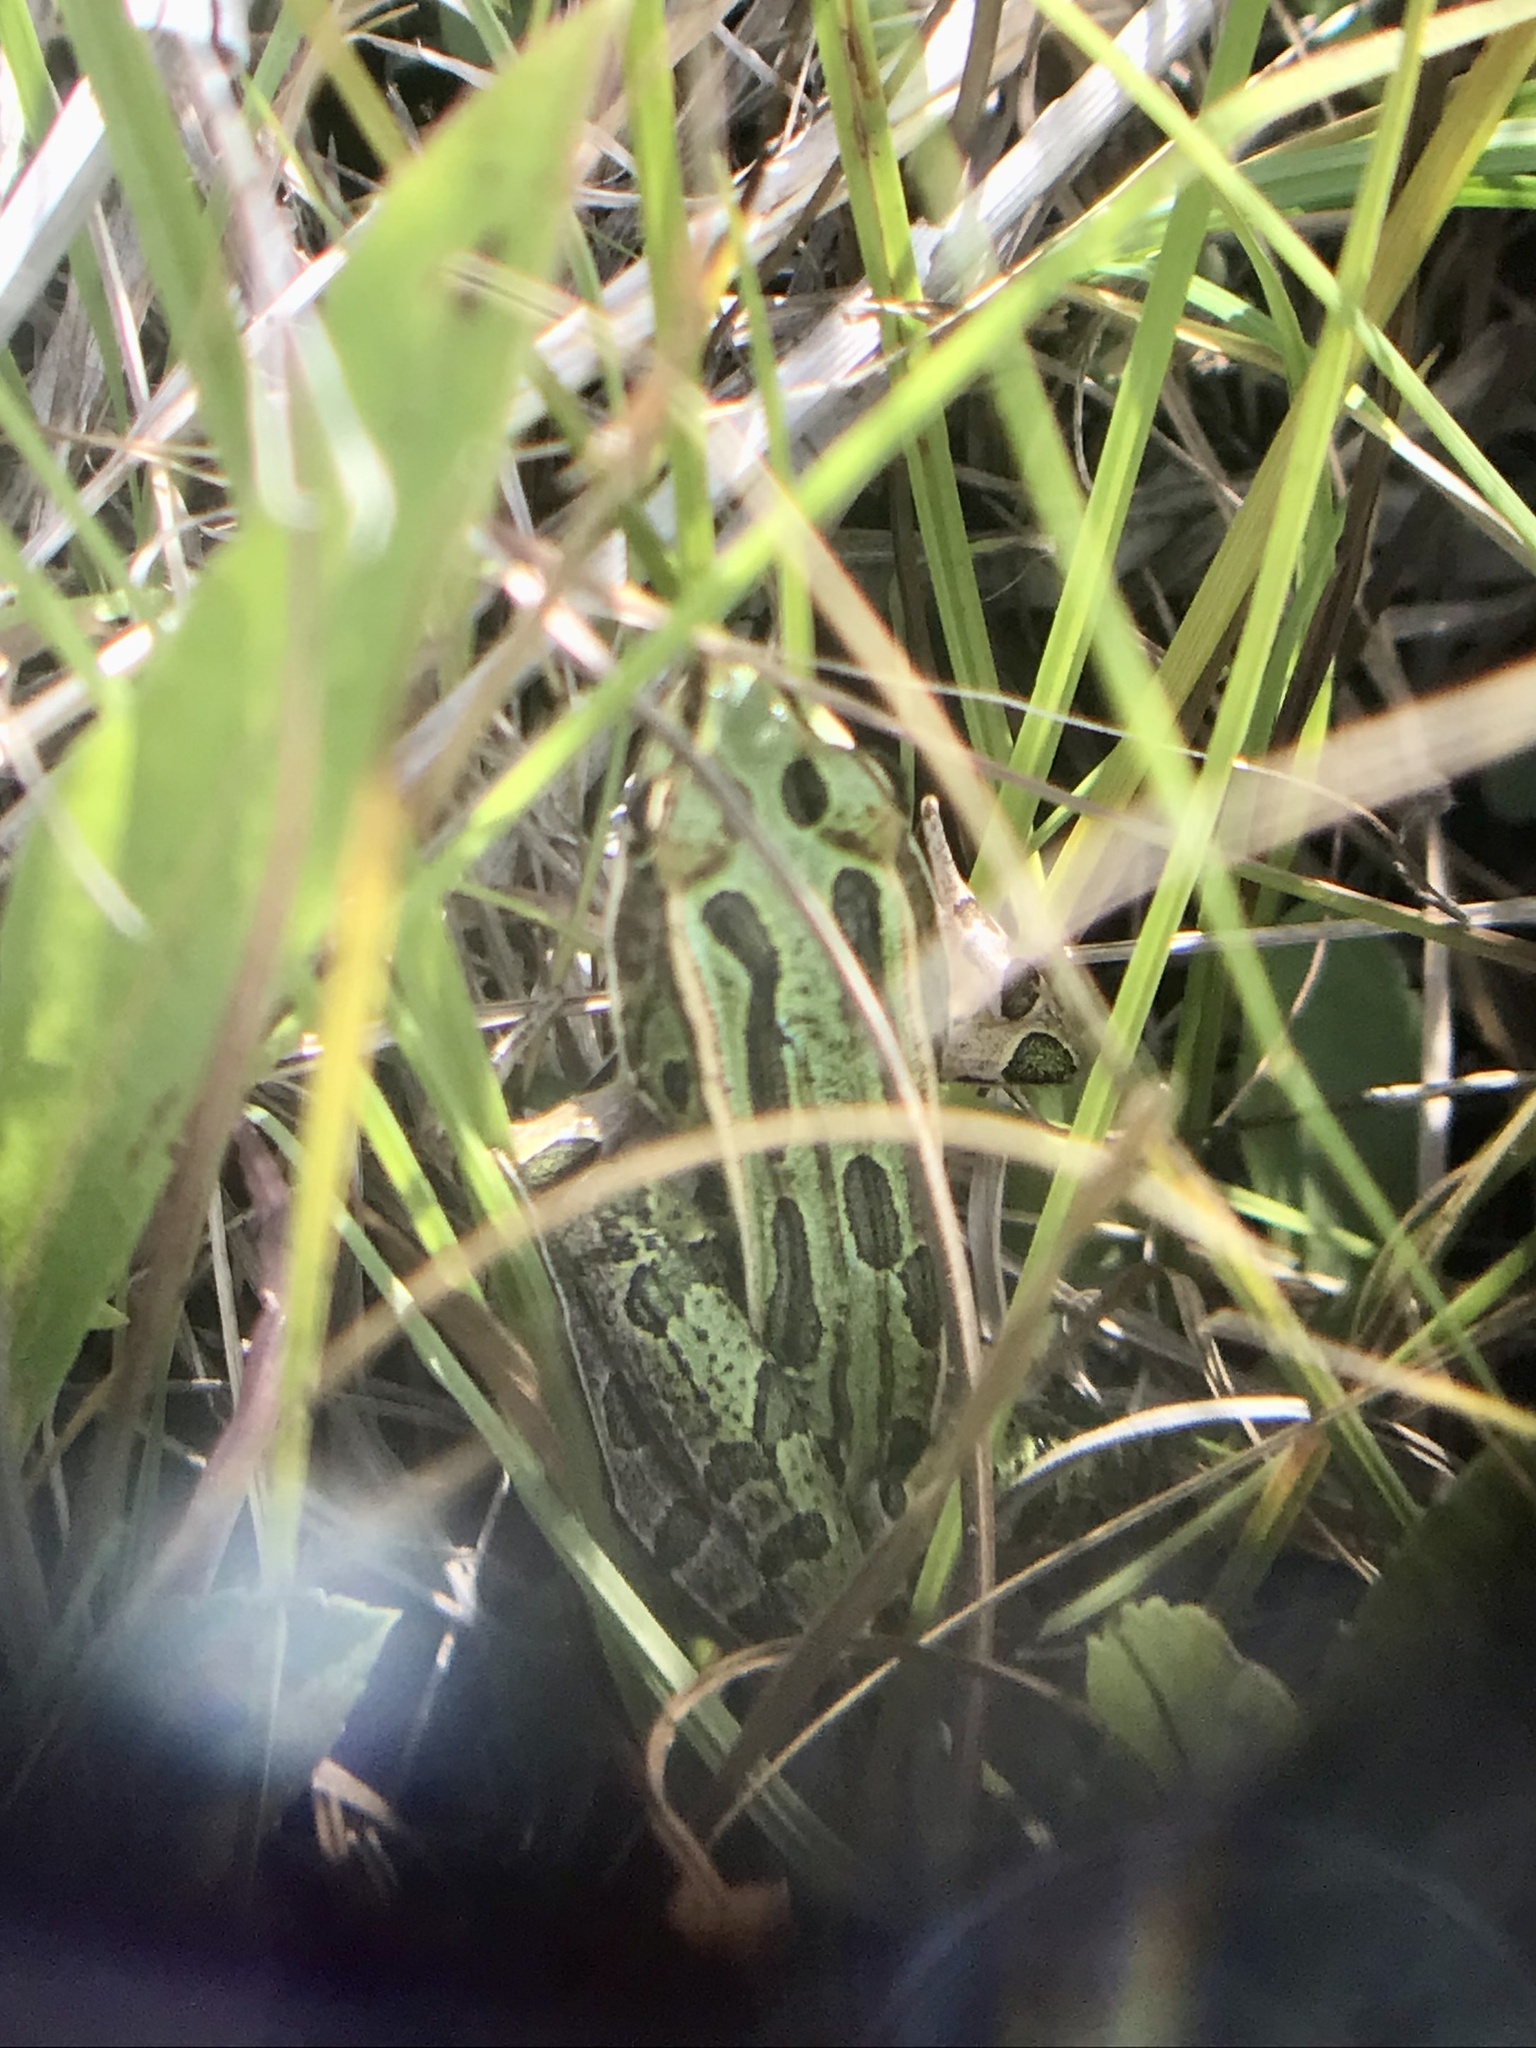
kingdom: Animalia
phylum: Chordata
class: Amphibia
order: Anura
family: Ranidae
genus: Lithobates
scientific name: Lithobates pipiens
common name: Northern leopard frog
